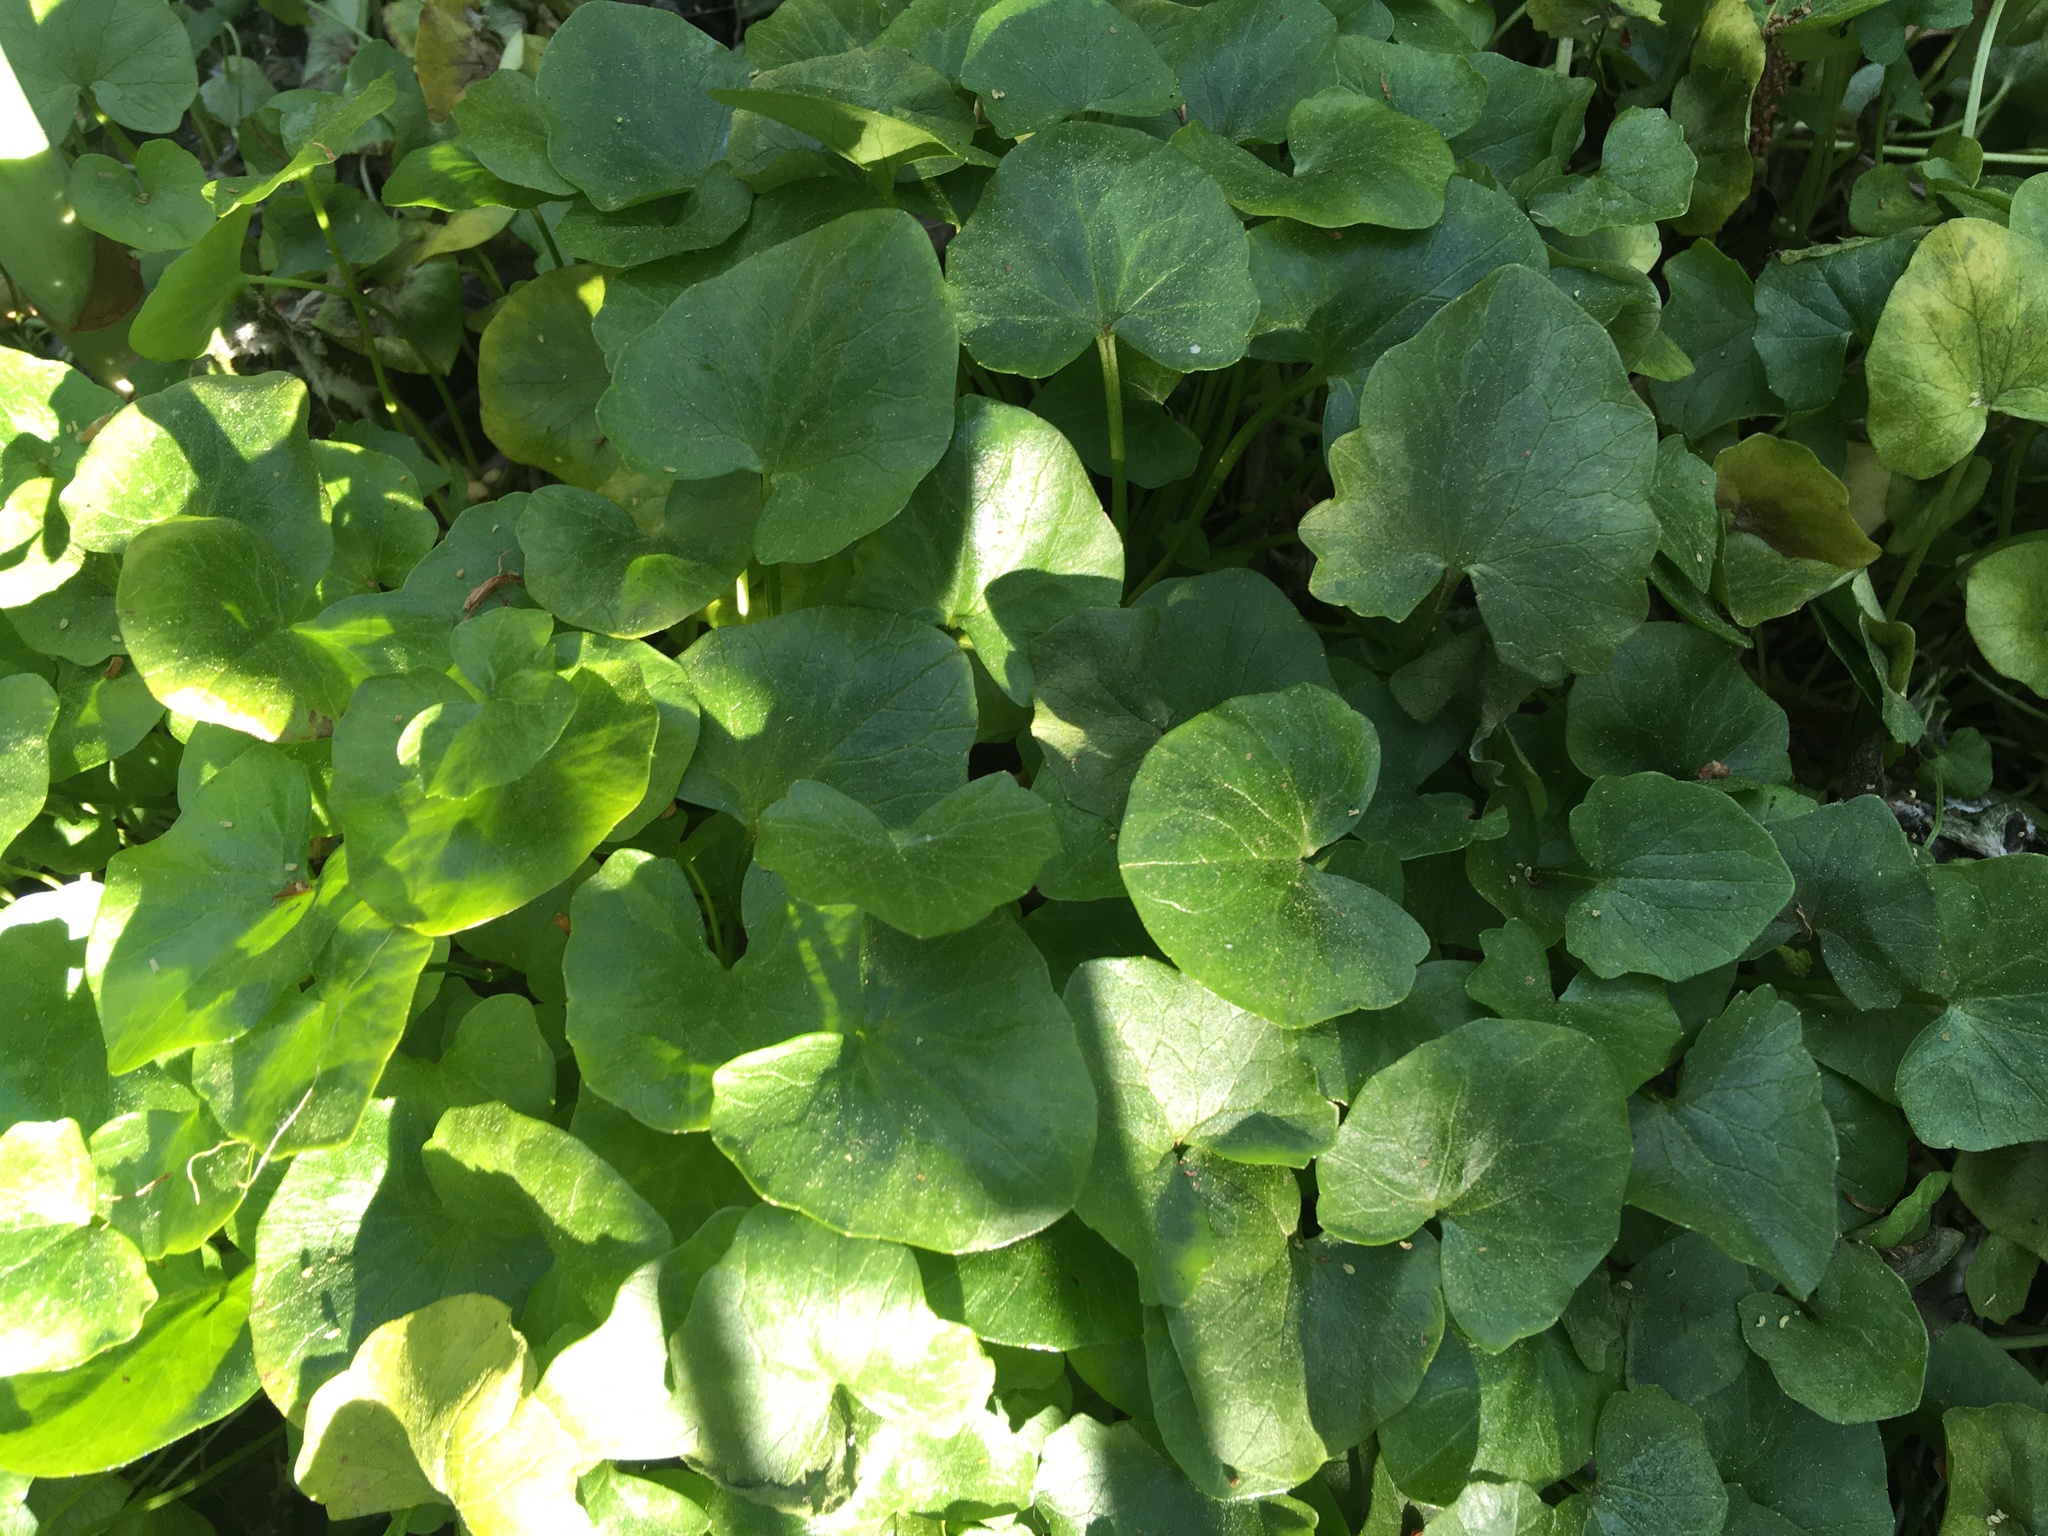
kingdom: Plantae
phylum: Tracheophyta
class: Magnoliopsida
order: Ranunculales
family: Ranunculaceae
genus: Ficaria
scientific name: Ficaria verna
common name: Lesser celandine
